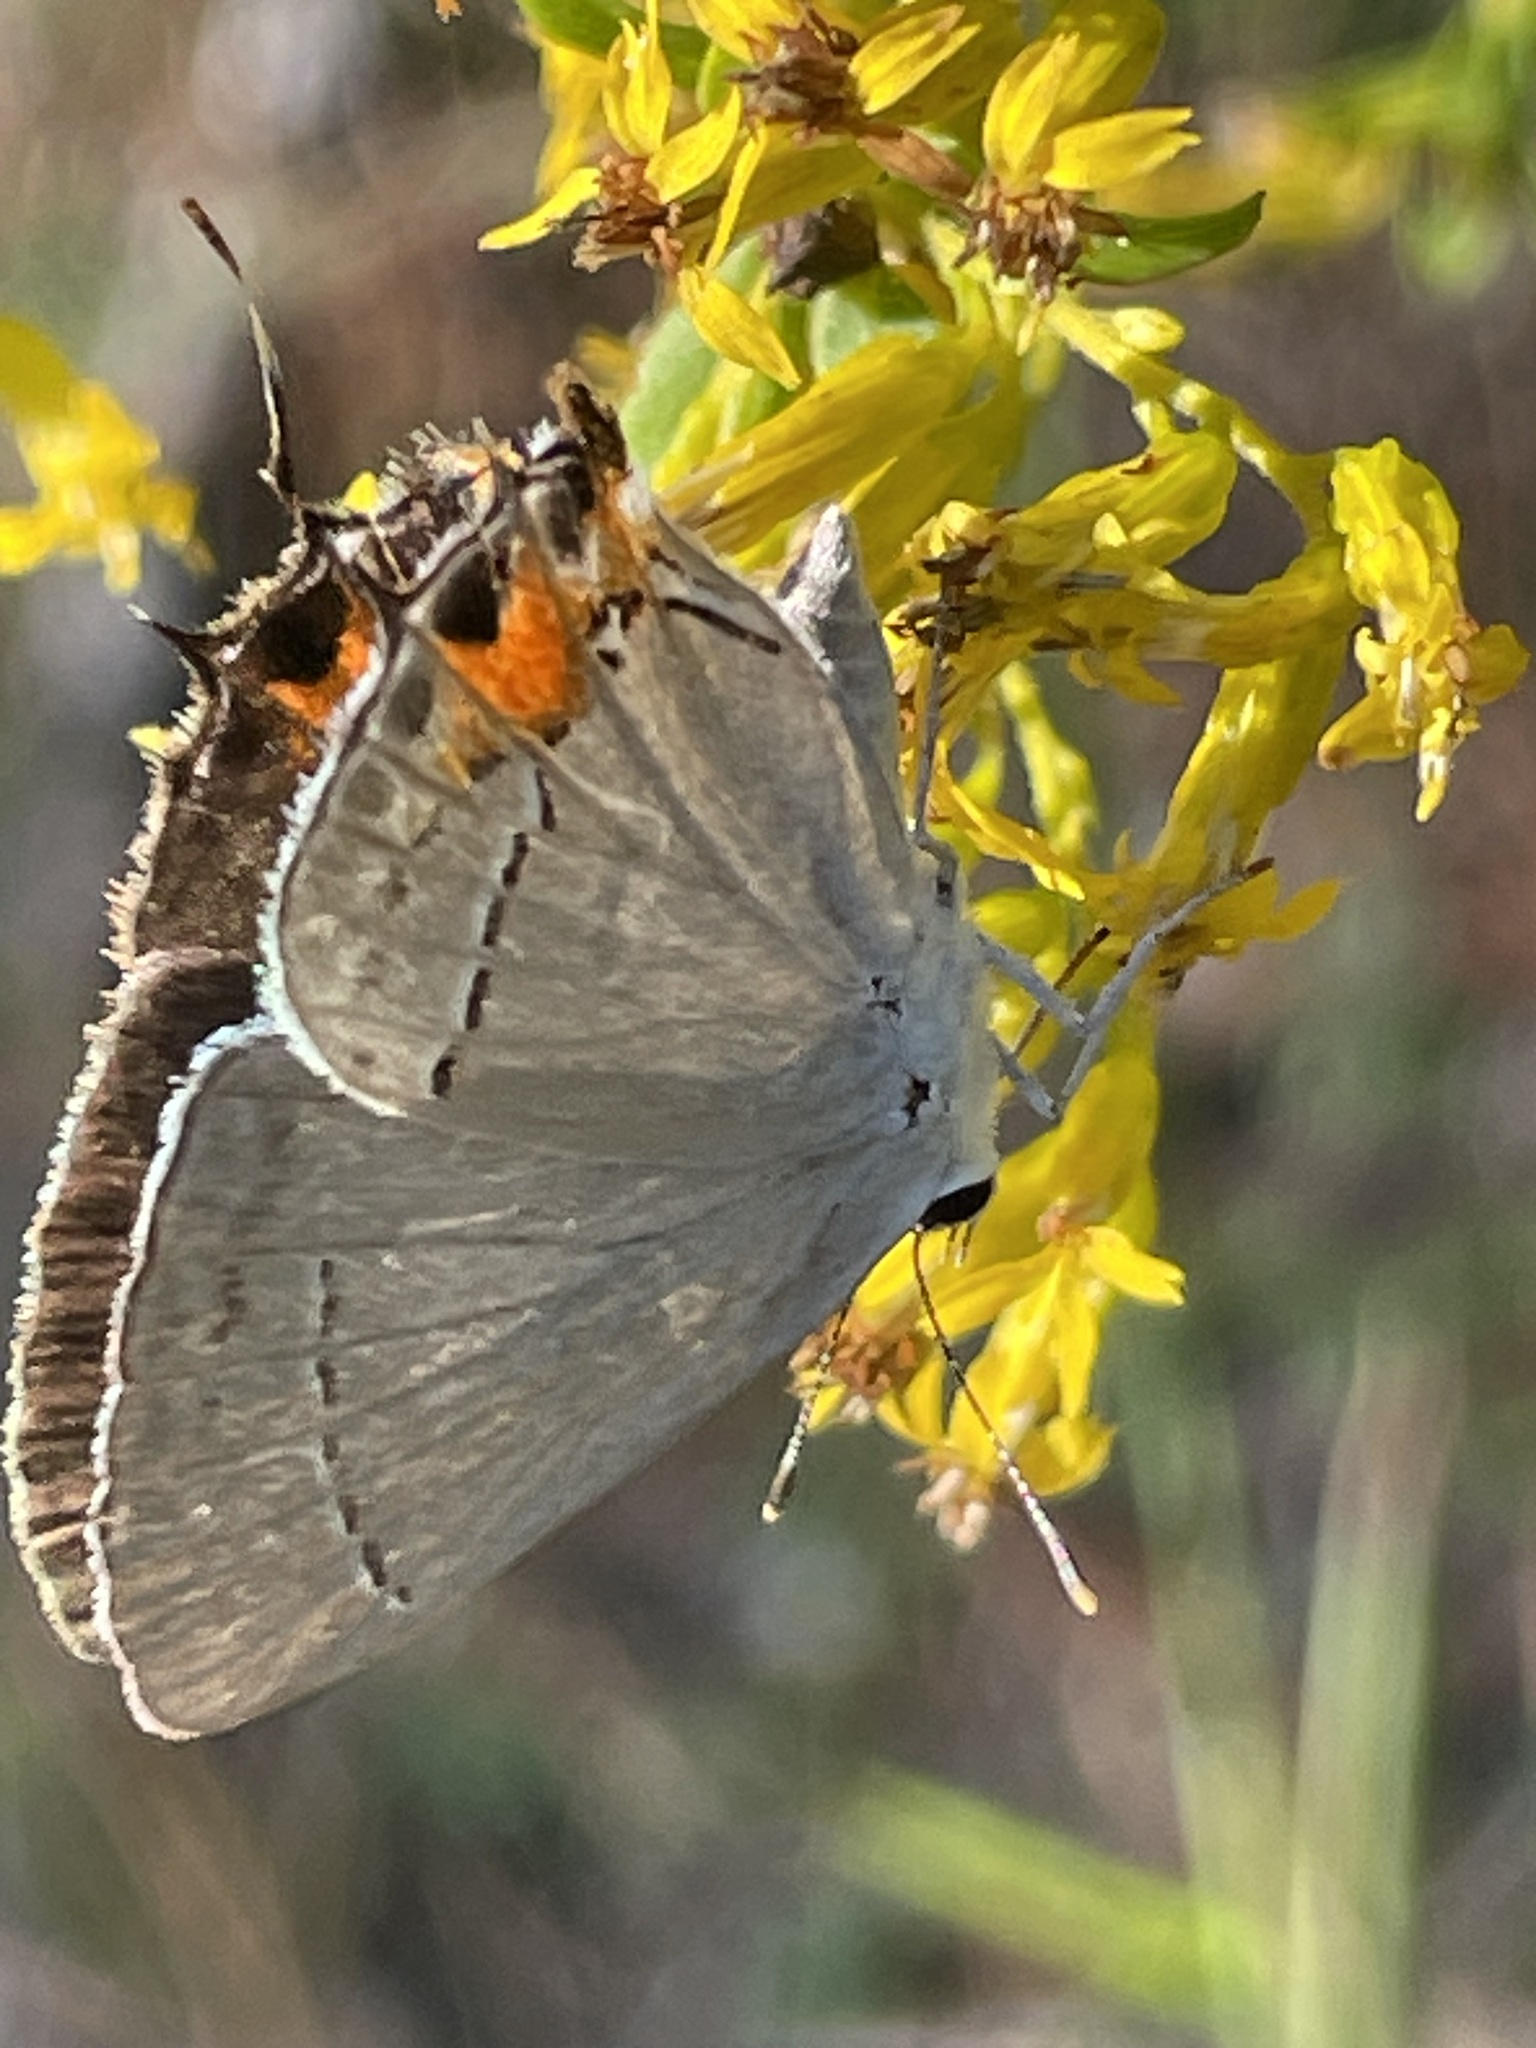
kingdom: Animalia
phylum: Arthropoda
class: Insecta
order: Lepidoptera
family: Lycaenidae
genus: Strymon
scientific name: Strymon melinus
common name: Gray hairstreak
